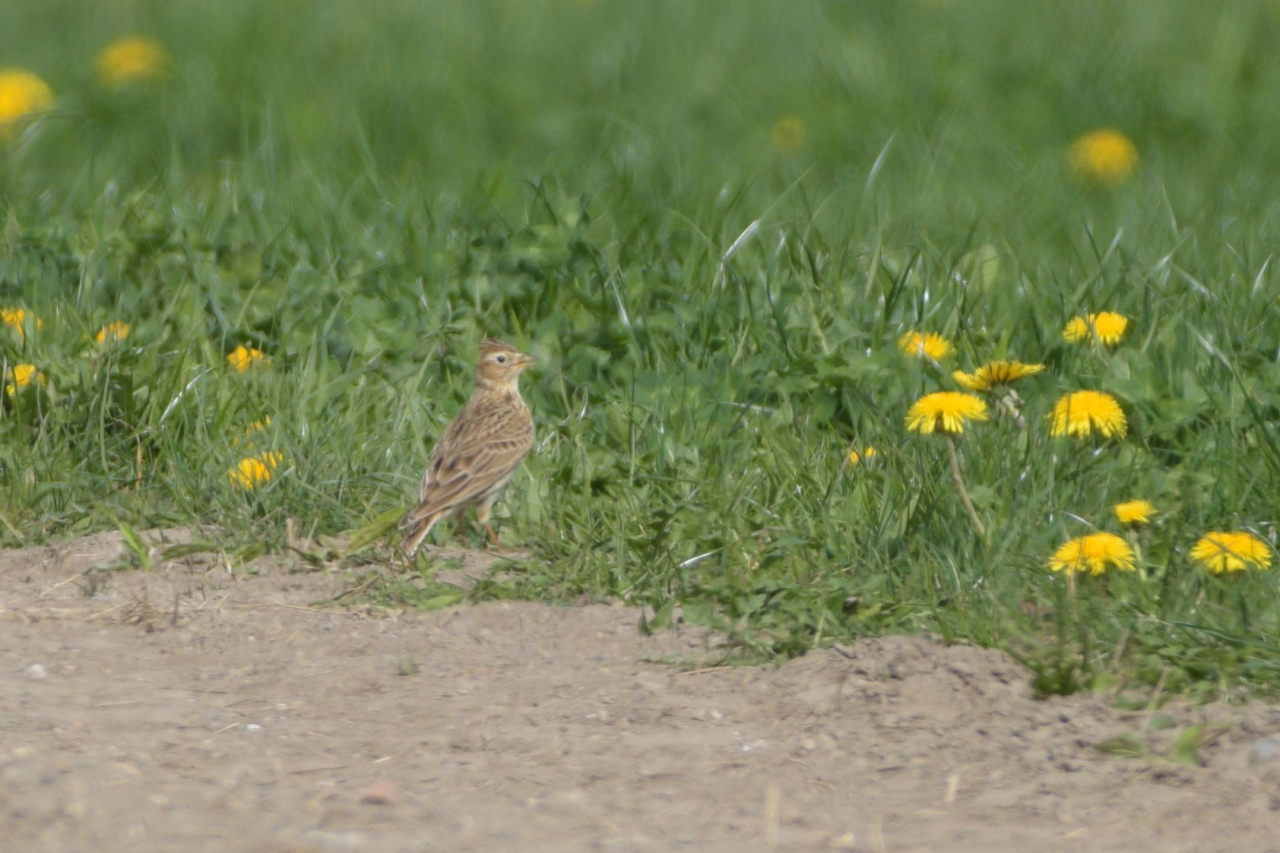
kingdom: Animalia
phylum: Chordata
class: Aves
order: Passeriformes
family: Alaudidae
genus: Alauda
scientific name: Alauda arvensis
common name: Eurasian skylark
